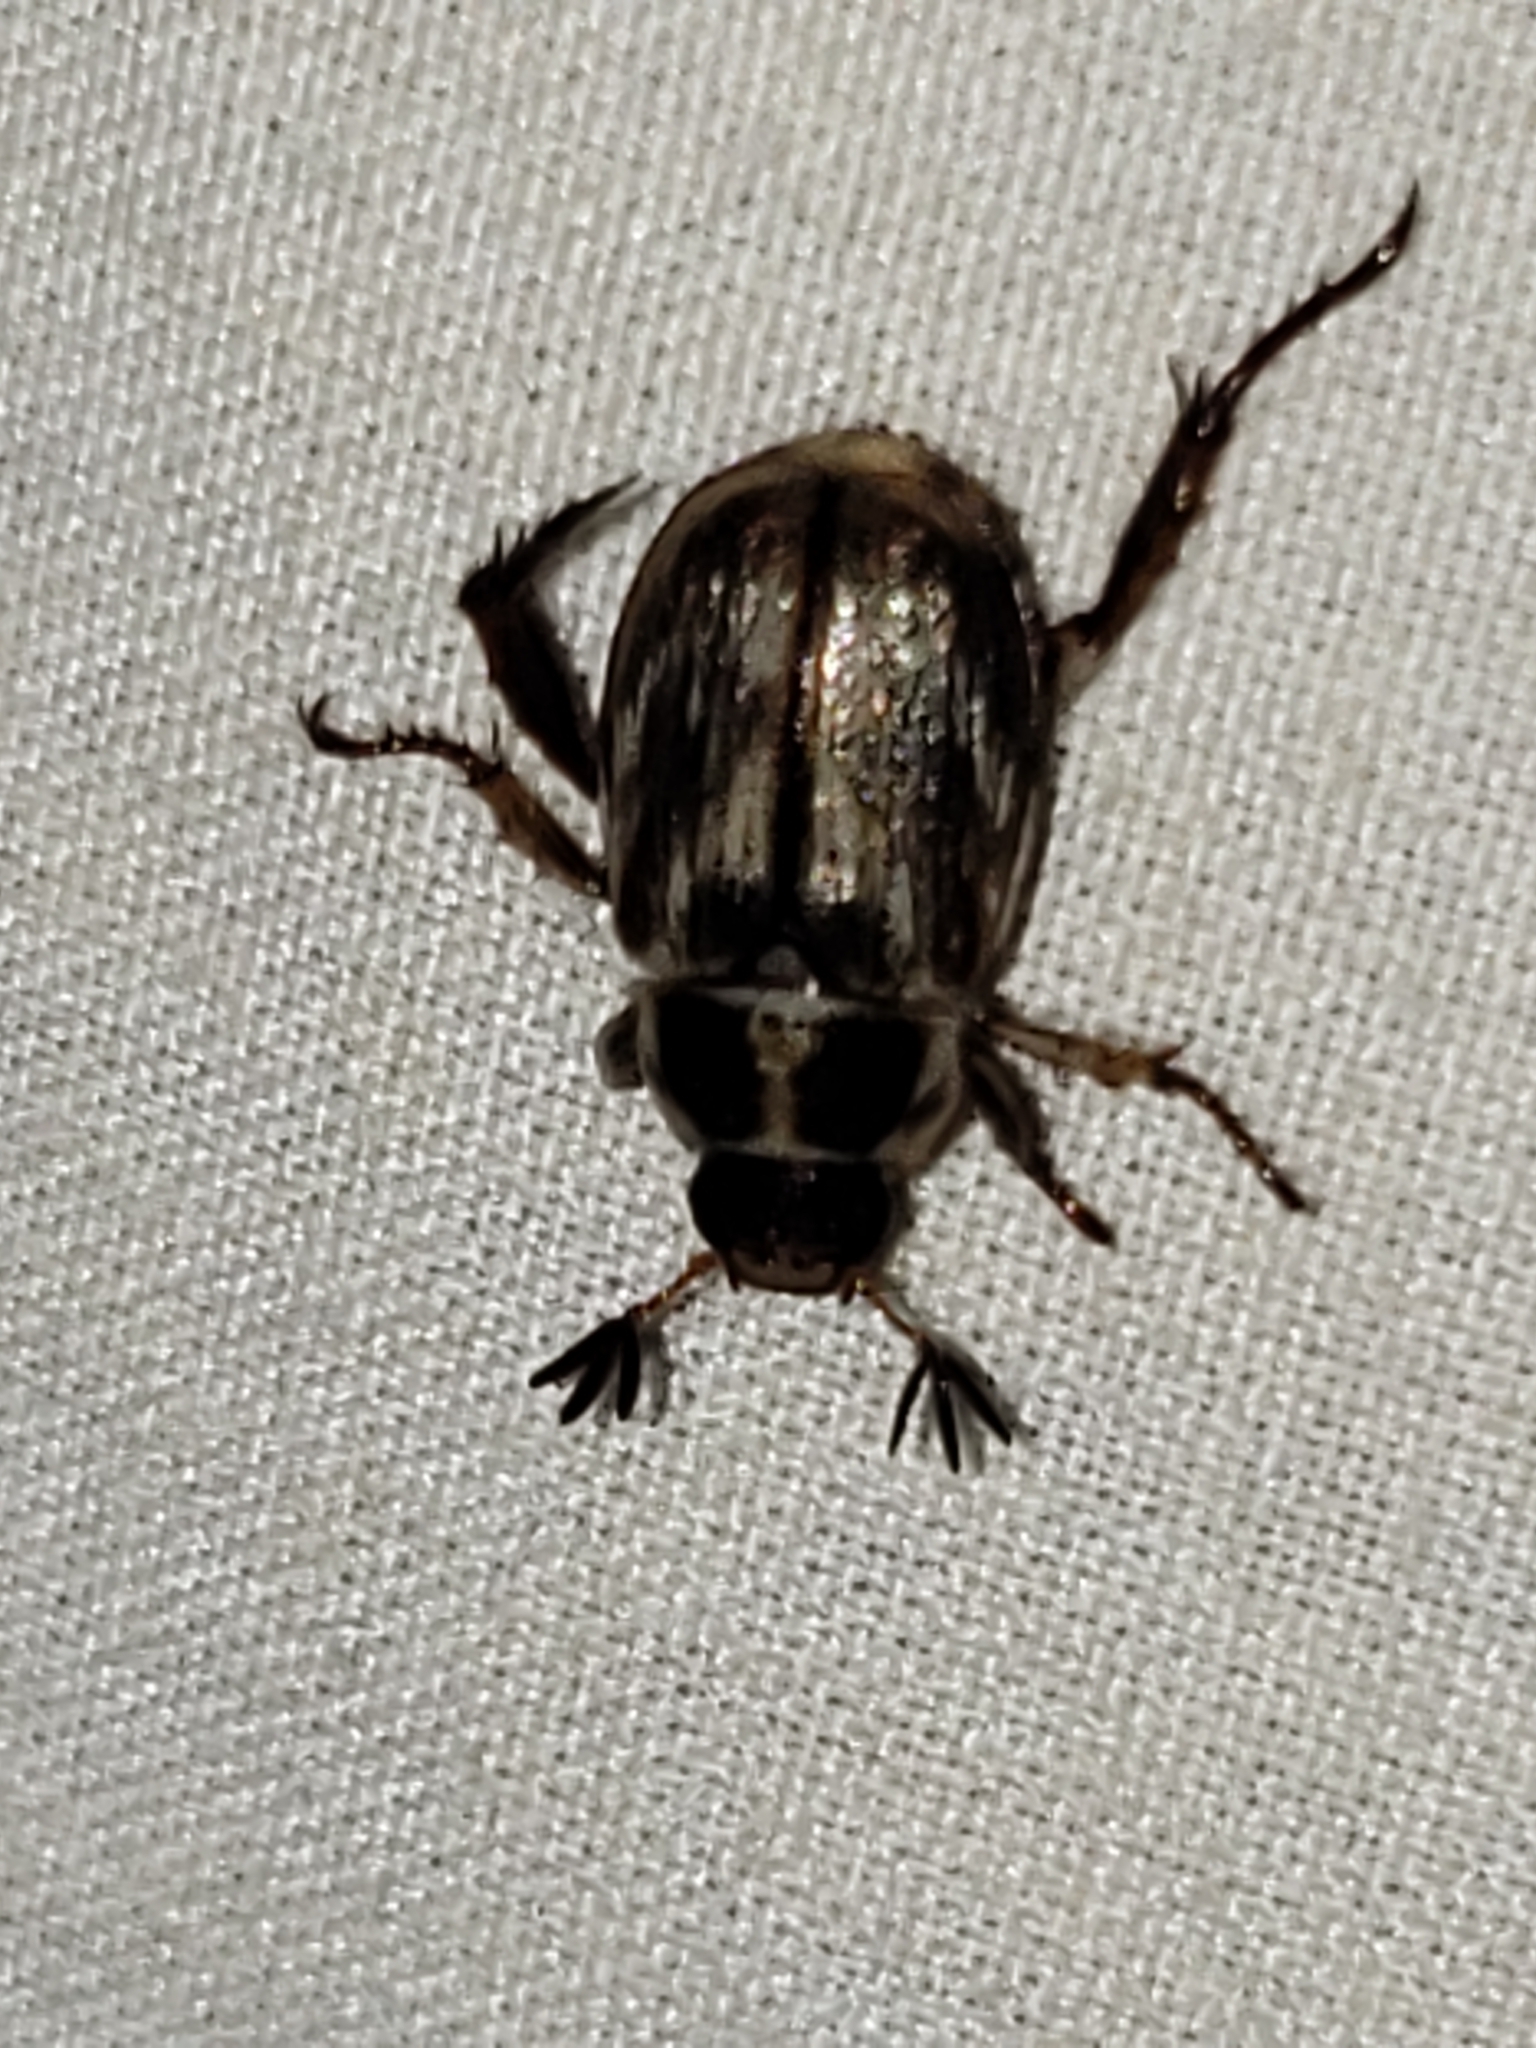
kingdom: Animalia
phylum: Arthropoda
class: Insecta
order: Coleoptera
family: Scarabaeidae
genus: Exomala
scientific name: Exomala orientalis
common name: Oriental beetle
